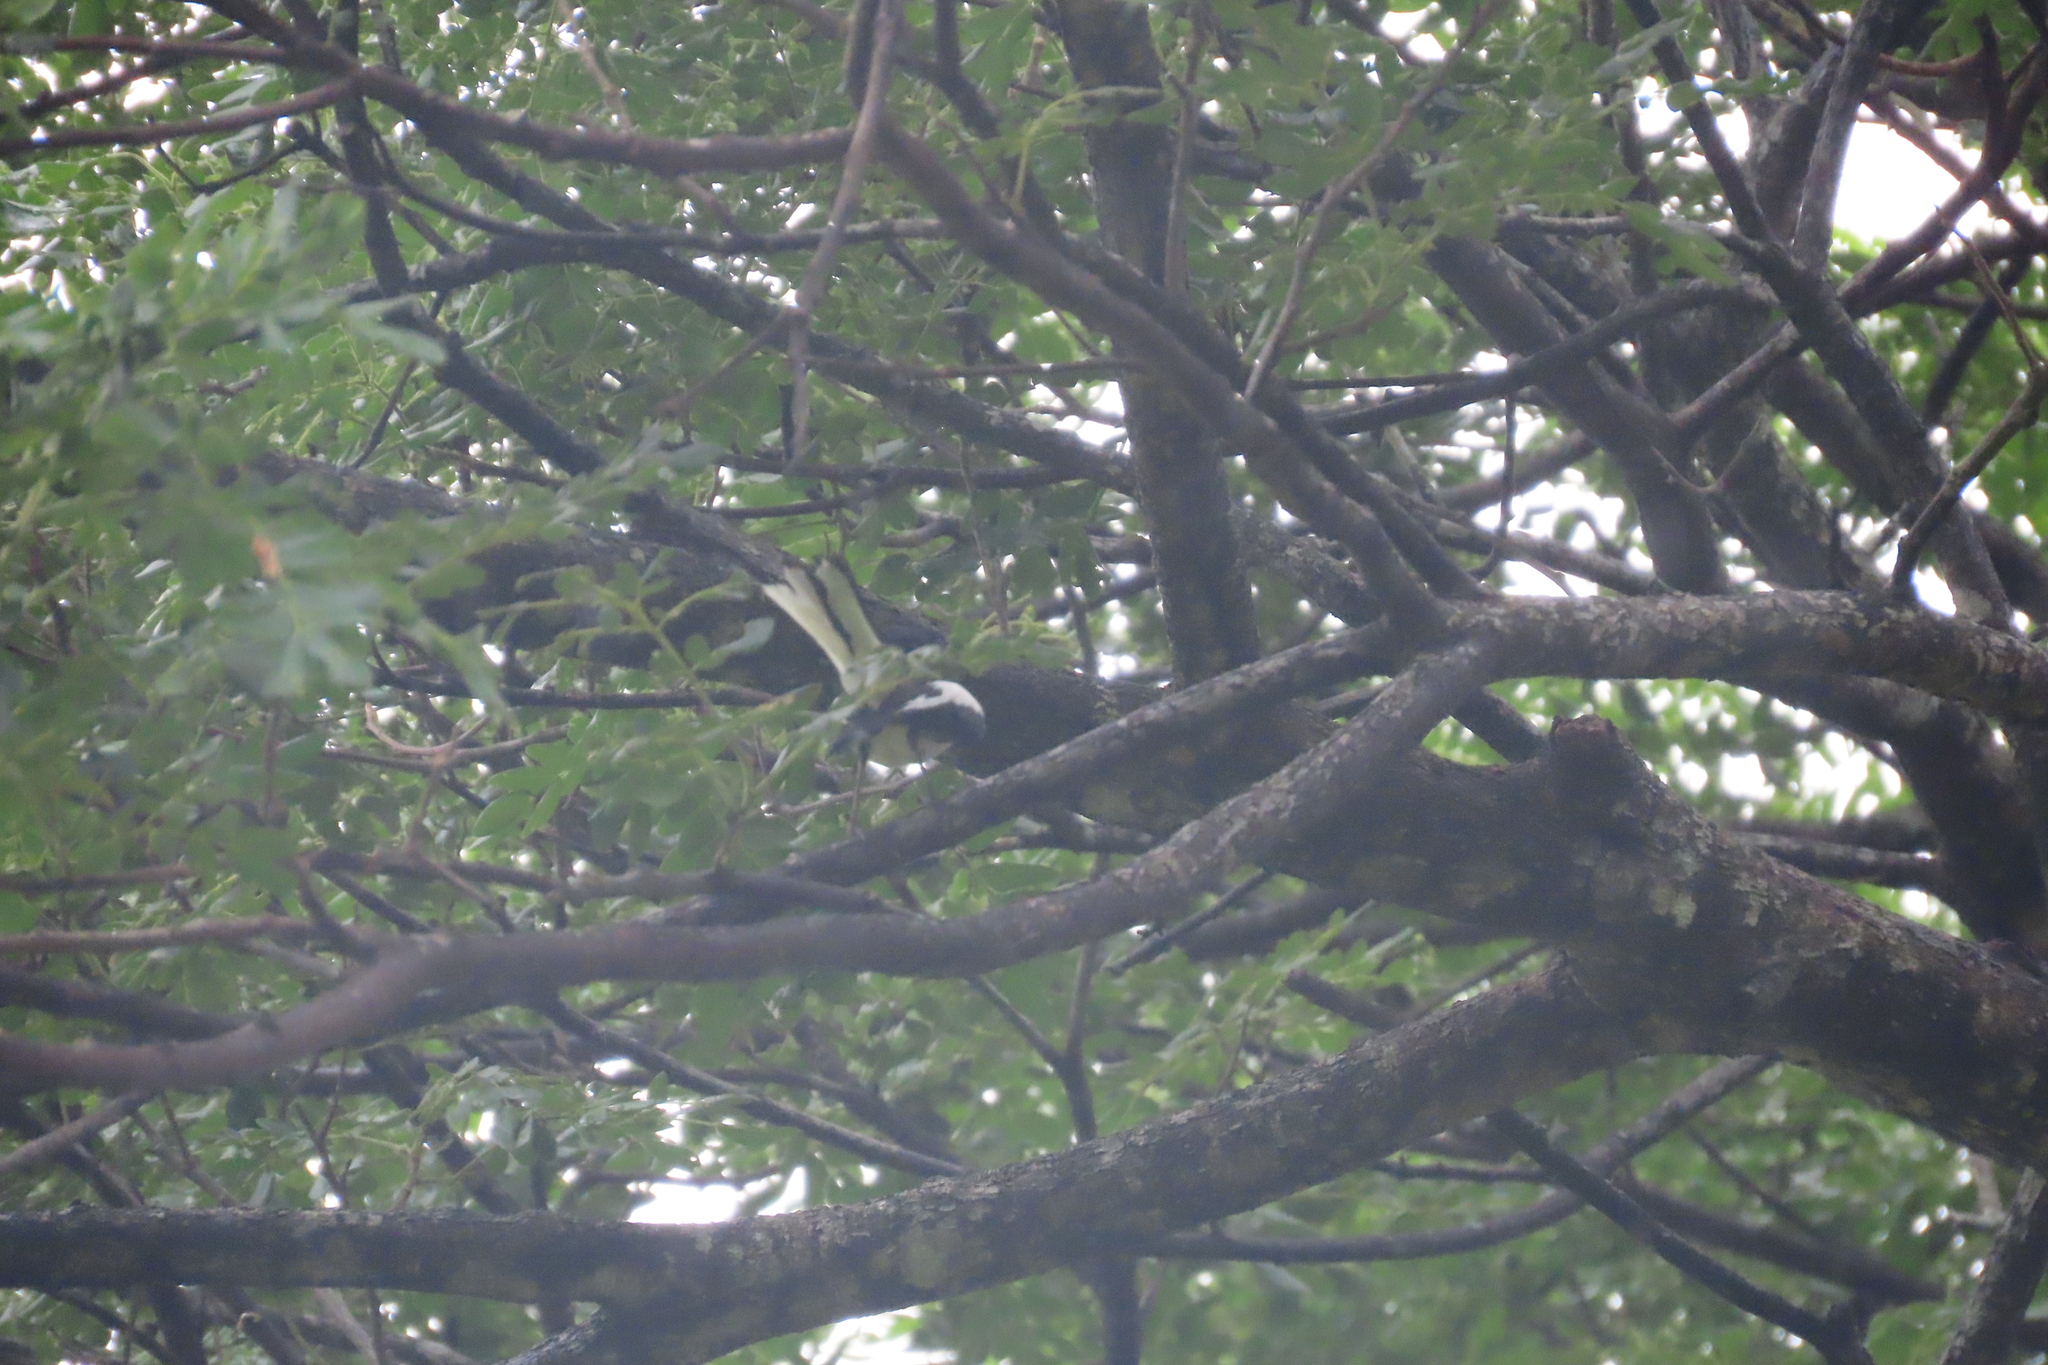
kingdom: Animalia
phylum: Chordata
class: Aves
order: Passeriformes
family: Muscicapidae
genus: Copsychus
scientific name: Copsychus saularis
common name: Oriental magpie-robin
